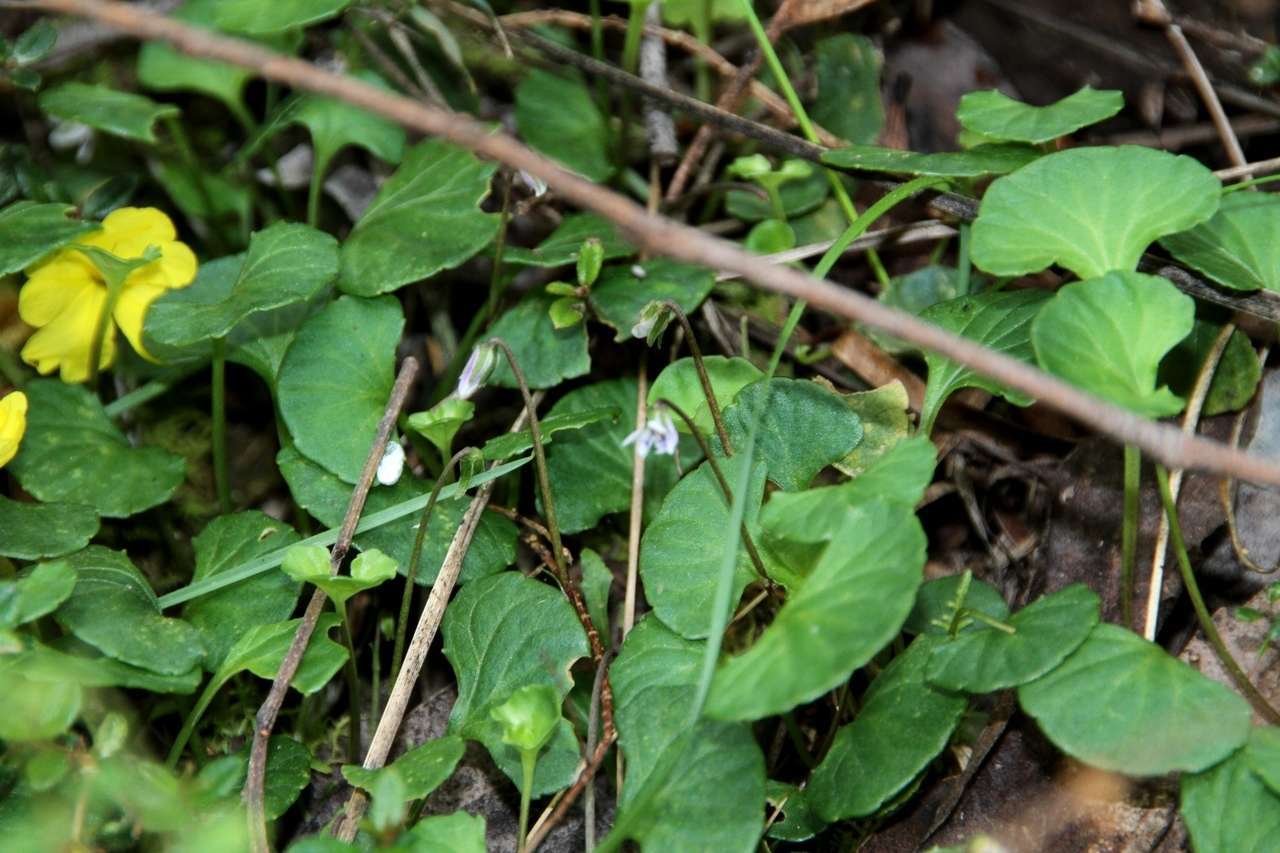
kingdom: Plantae
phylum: Tracheophyta
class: Magnoliopsida
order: Malpighiales
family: Violaceae
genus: Viola
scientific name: Viola hederacea
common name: Australian violet
